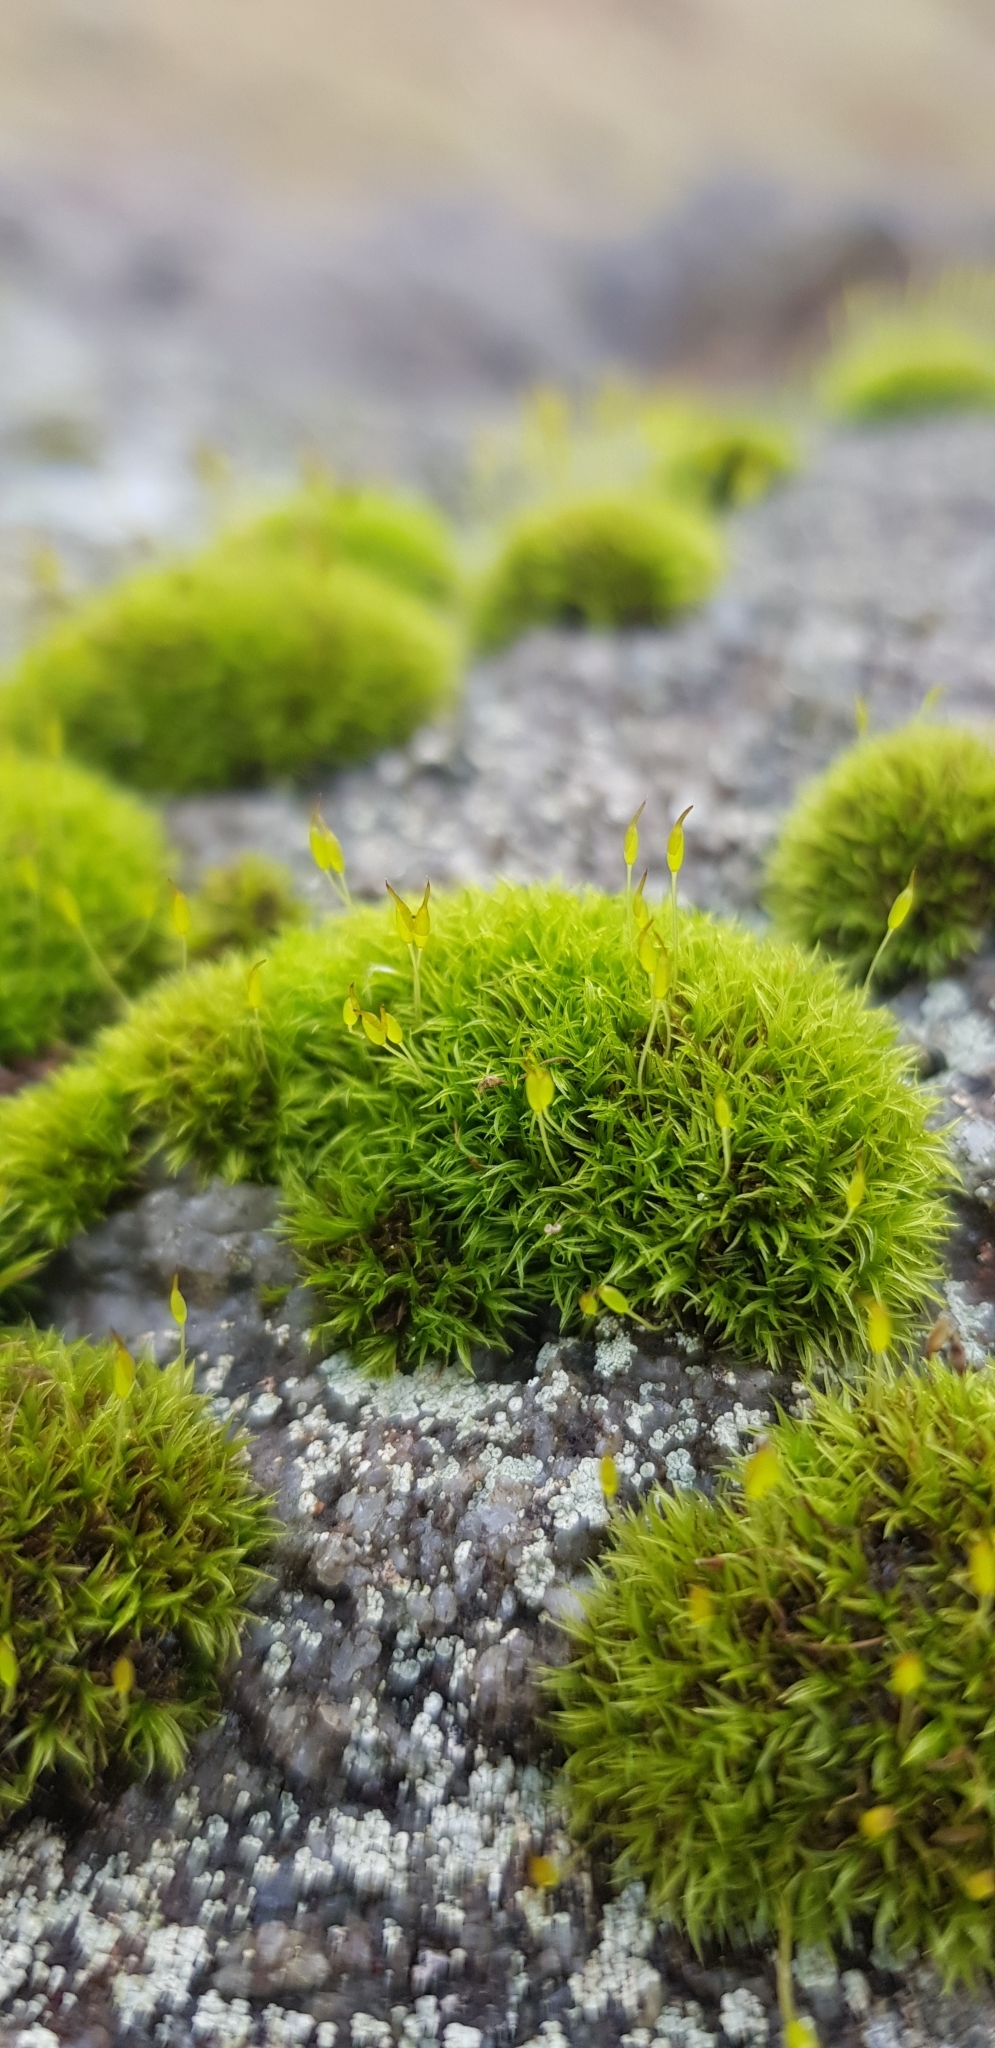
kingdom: Plantae
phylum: Bryophyta
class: Bryopsida
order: Dicranales
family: Rhabdoweisiaceae
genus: Dicranoweisia
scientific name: Dicranoweisia cirrata
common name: Common pincushion
